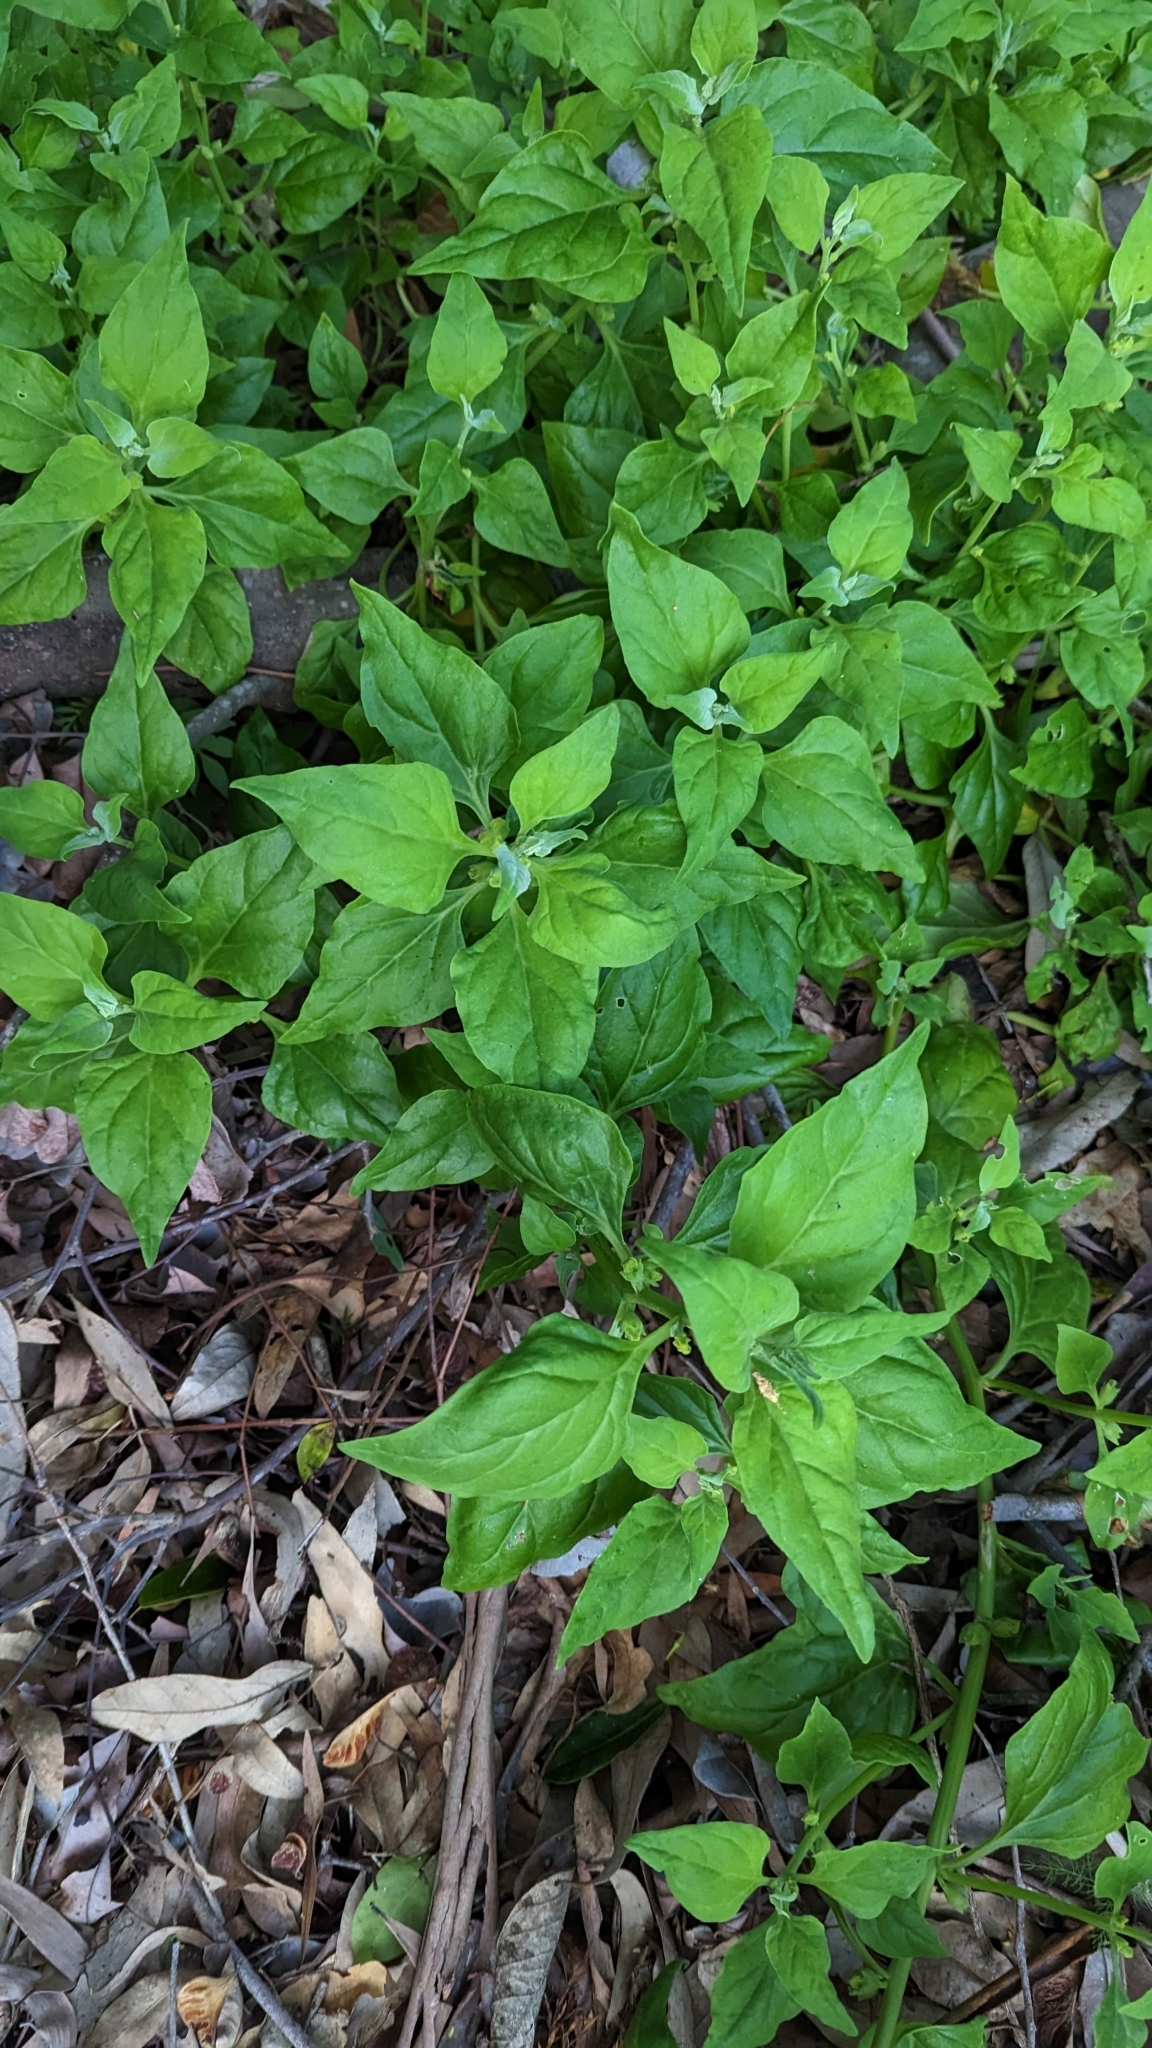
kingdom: Plantae
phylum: Tracheophyta
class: Magnoliopsida
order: Caryophyllales
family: Aizoaceae
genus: Tetragonia
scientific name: Tetragonia tetragonoides
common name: New zealand-spinach
